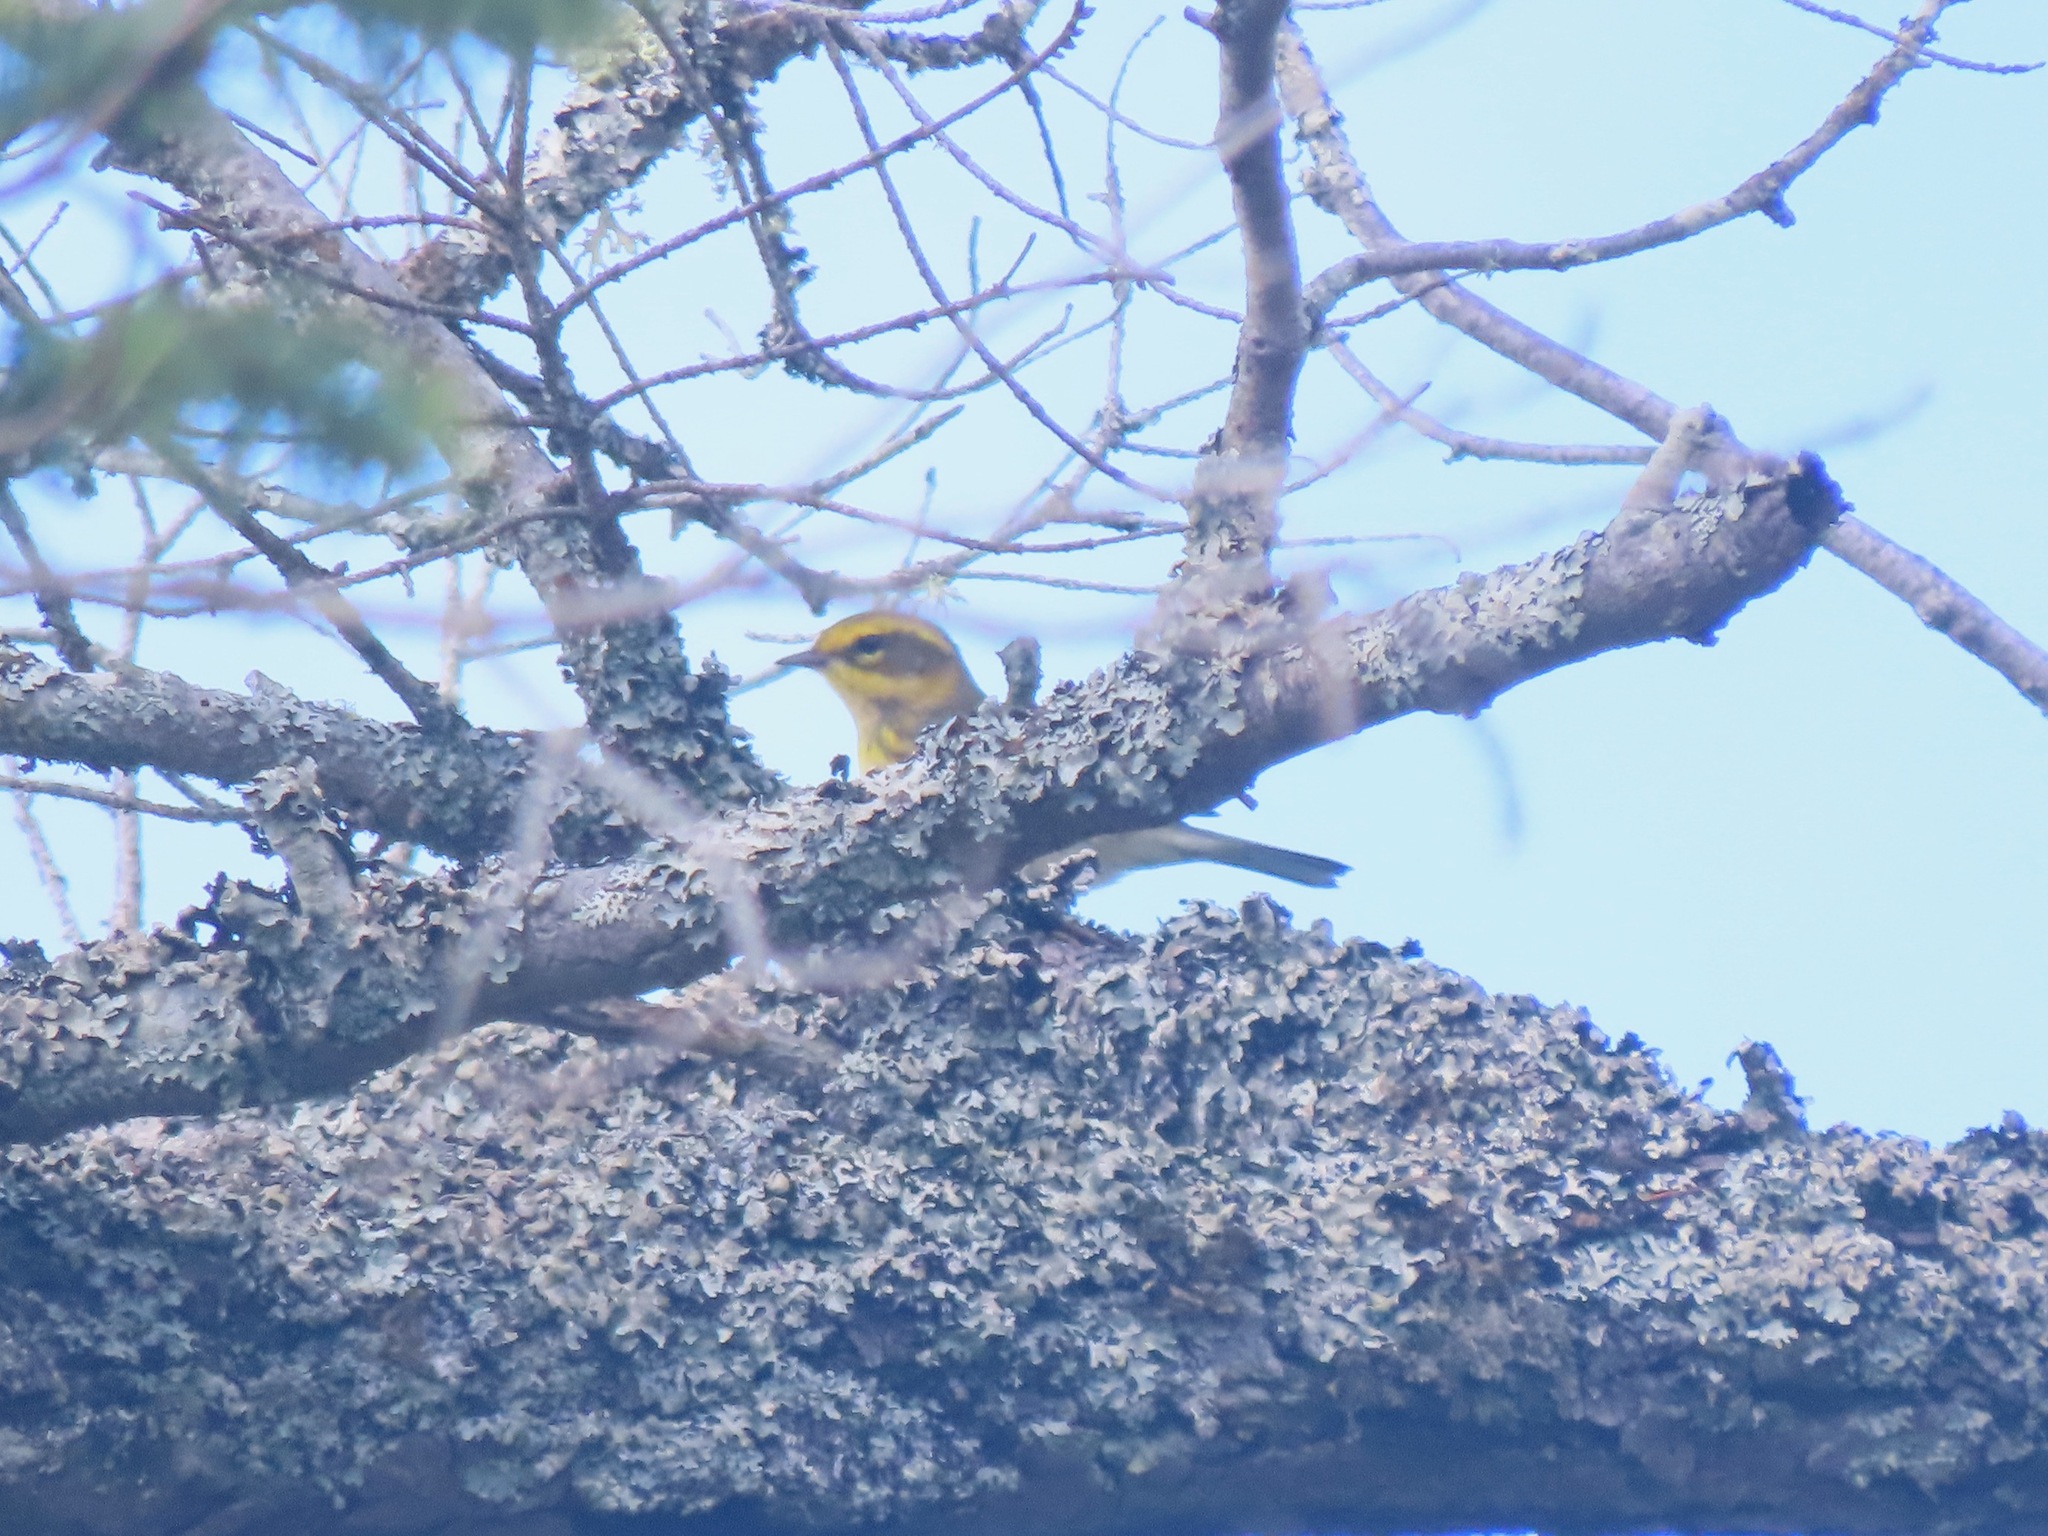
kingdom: Animalia
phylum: Chordata
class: Aves
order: Passeriformes
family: Parulidae
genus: Setophaga
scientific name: Setophaga townsendi
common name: Townsend's warbler
